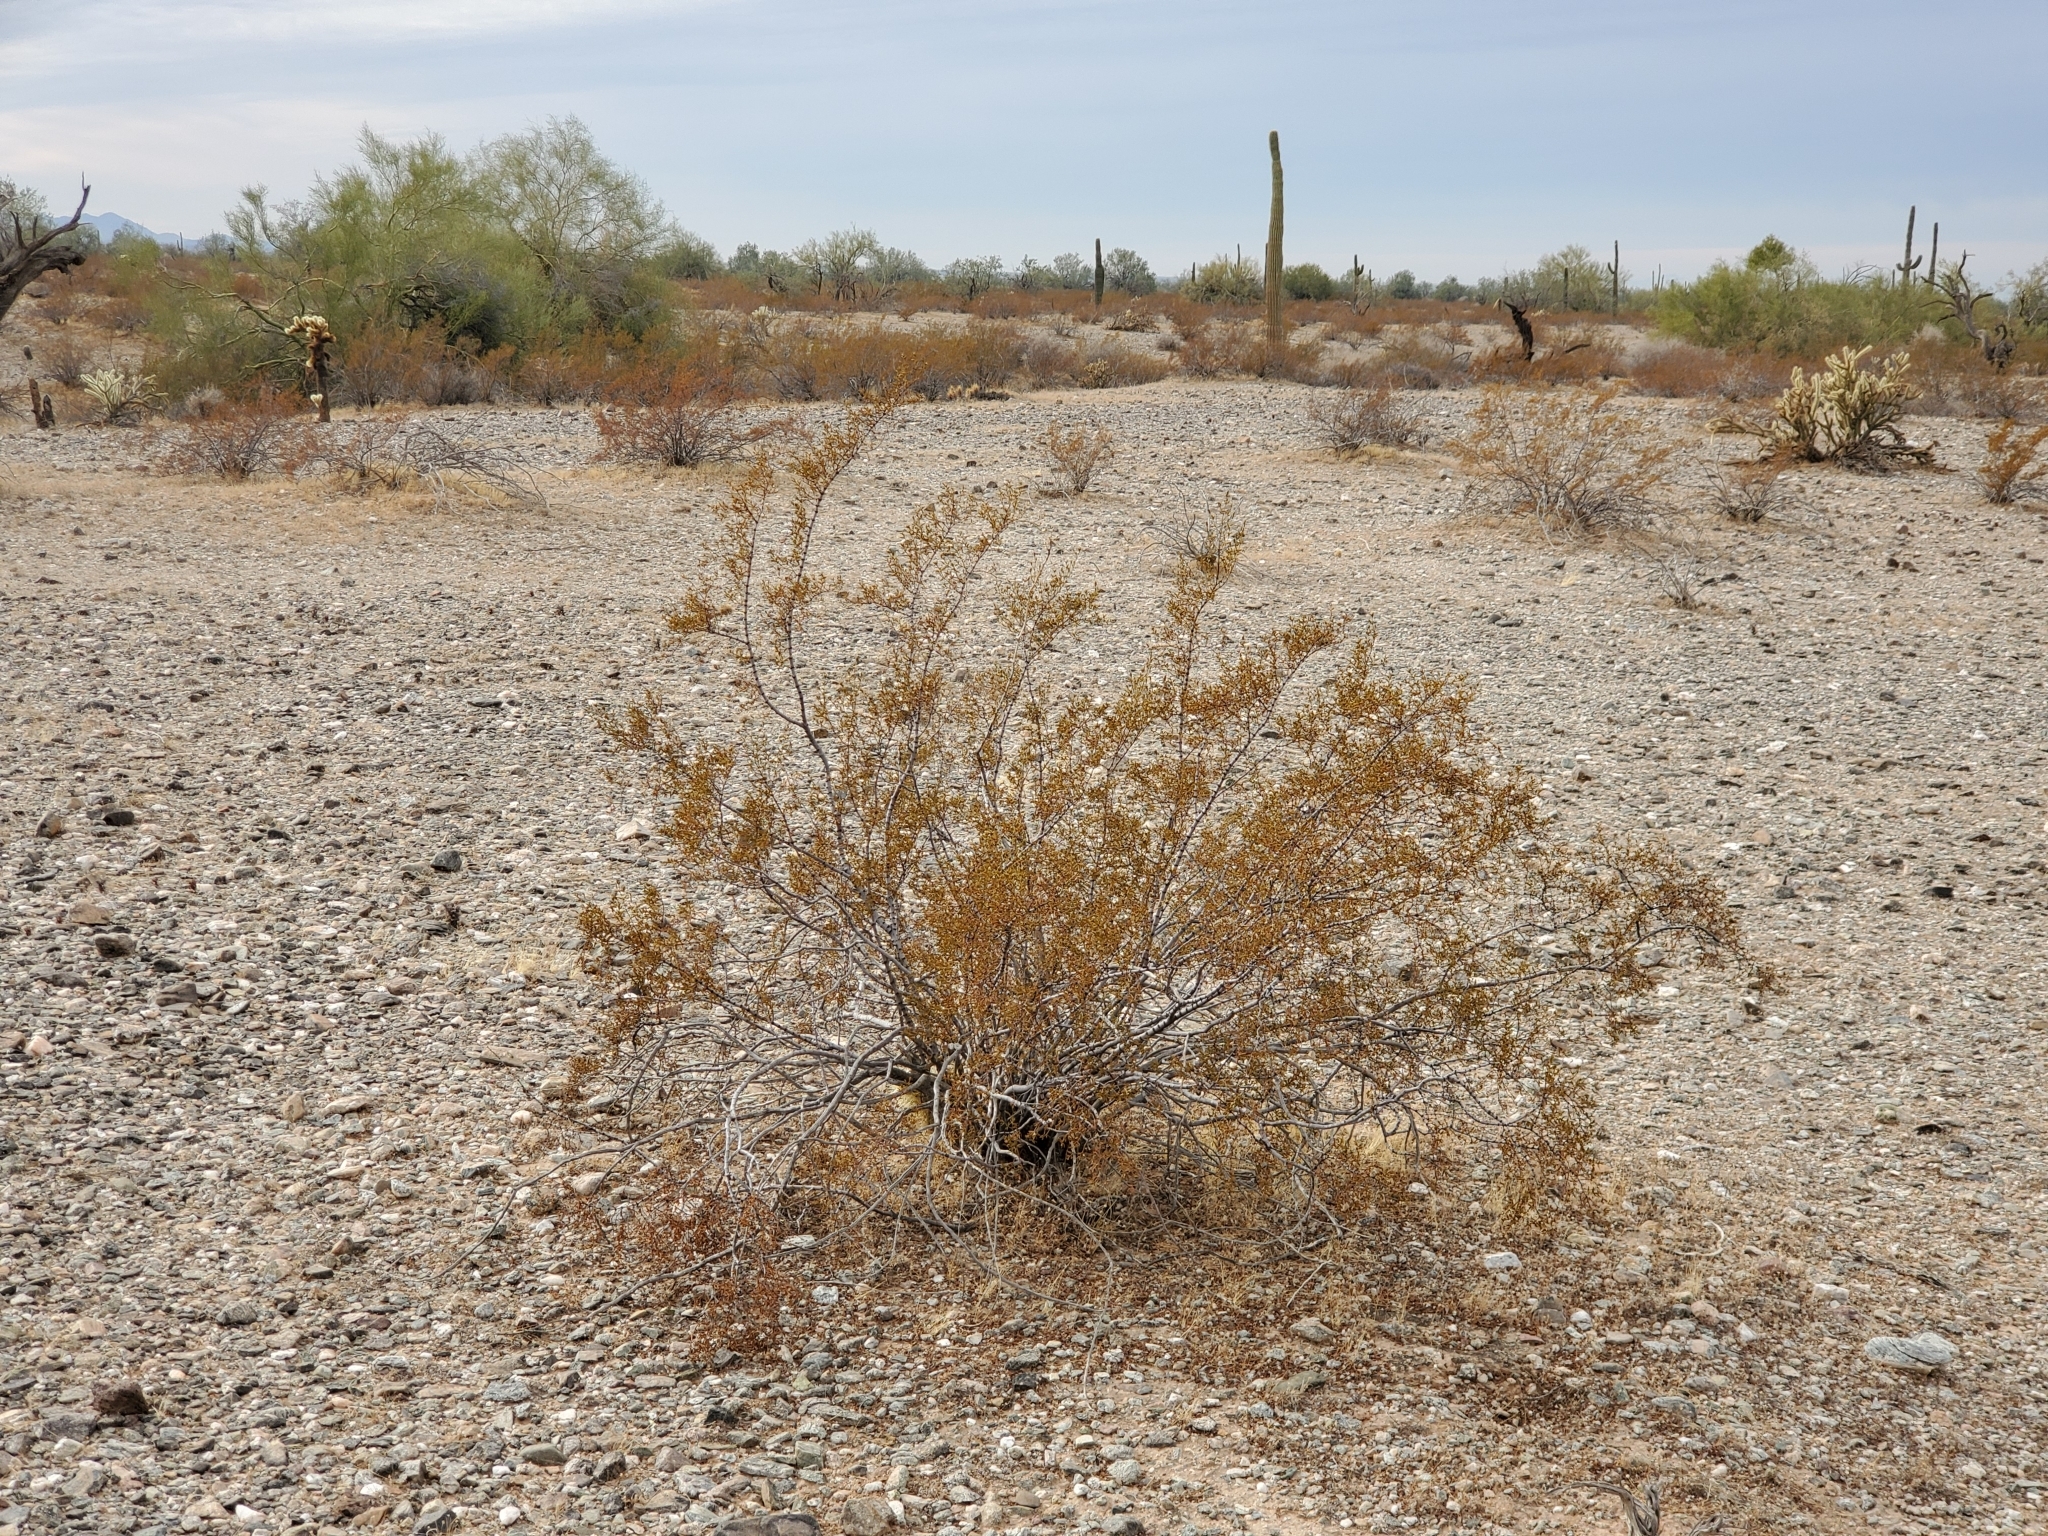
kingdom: Plantae
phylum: Tracheophyta
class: Magnoliopsida
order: Zygophyllales
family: Zygophyllaceae
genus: Larrea
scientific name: Larrea tridentata
